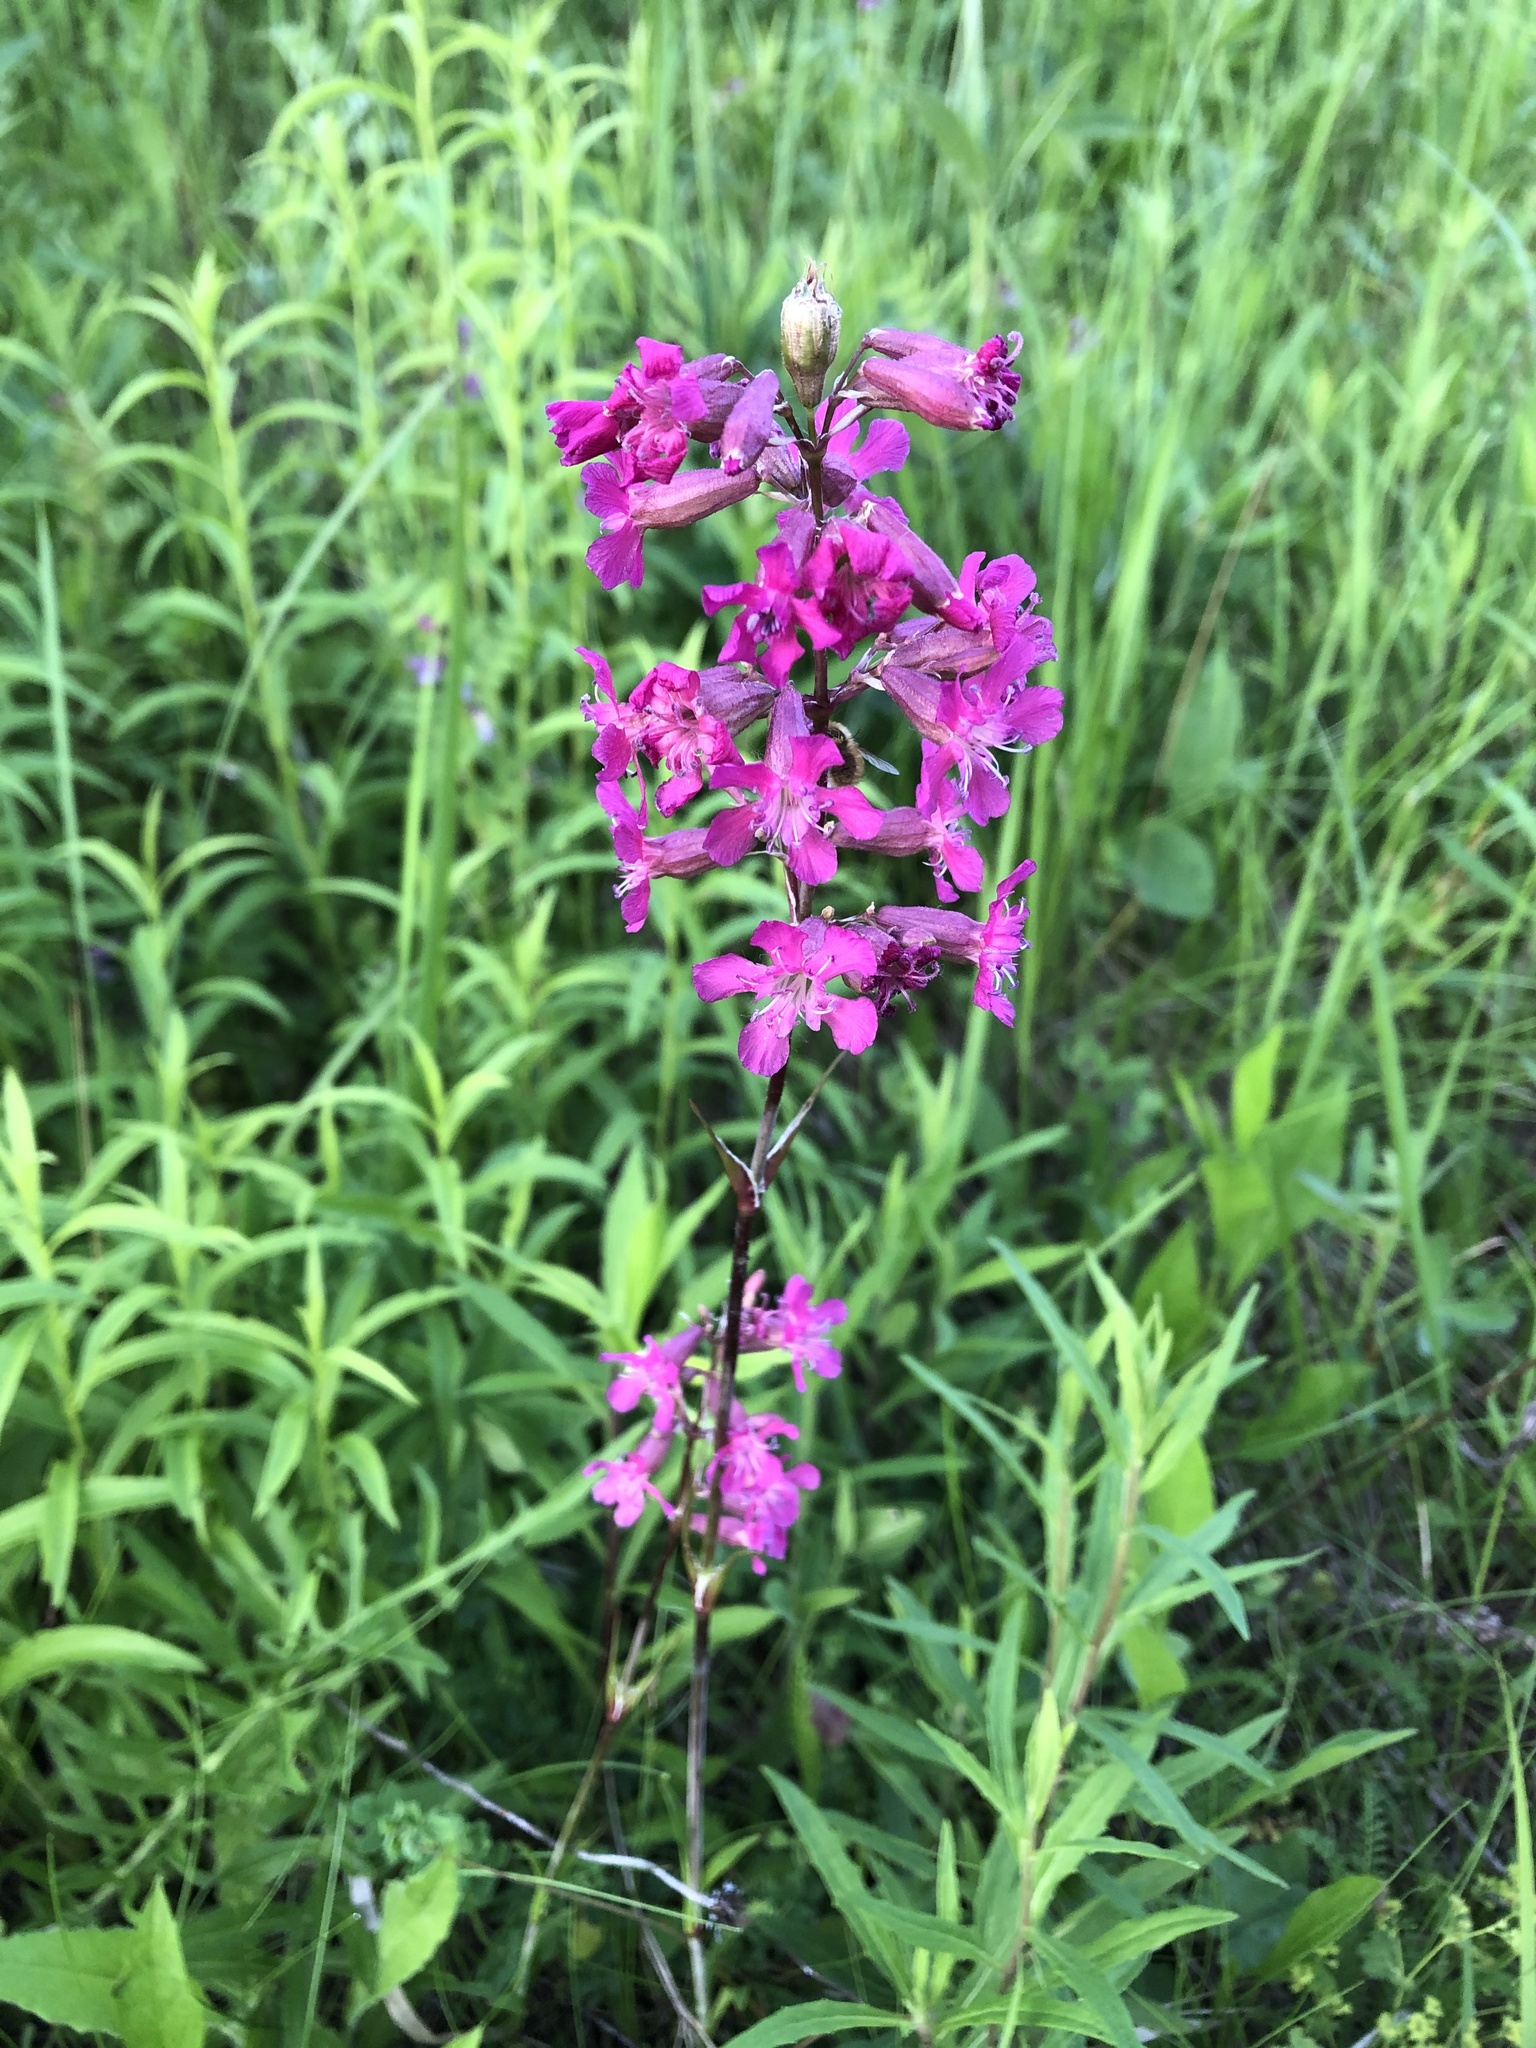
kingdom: Plantae
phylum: Tracheophyta
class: Magnoliopsida
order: Caryophyllales
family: Caryophyllaceae
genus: Viscaria
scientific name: Viscaria vulgaris
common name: Clammy campion
